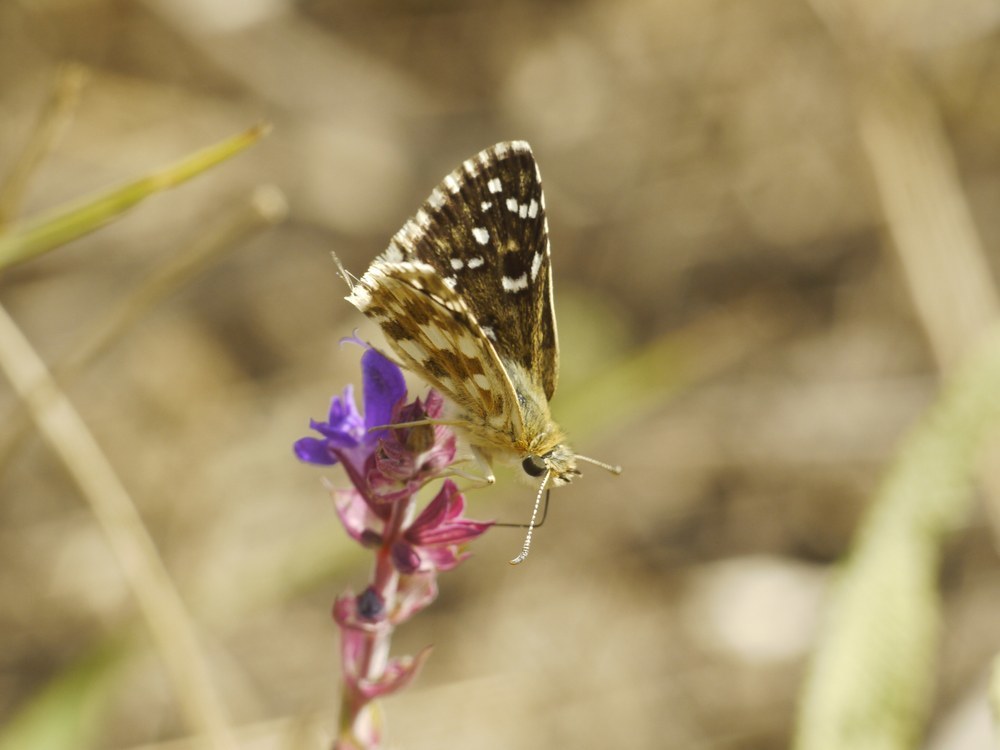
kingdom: Animalia
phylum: Arthropoda
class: Insecta
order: Lepidoptera
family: Hesperiidae
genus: Pyrgus
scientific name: Pyrgus armoricanus
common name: Oberthür's grizzled skipper
